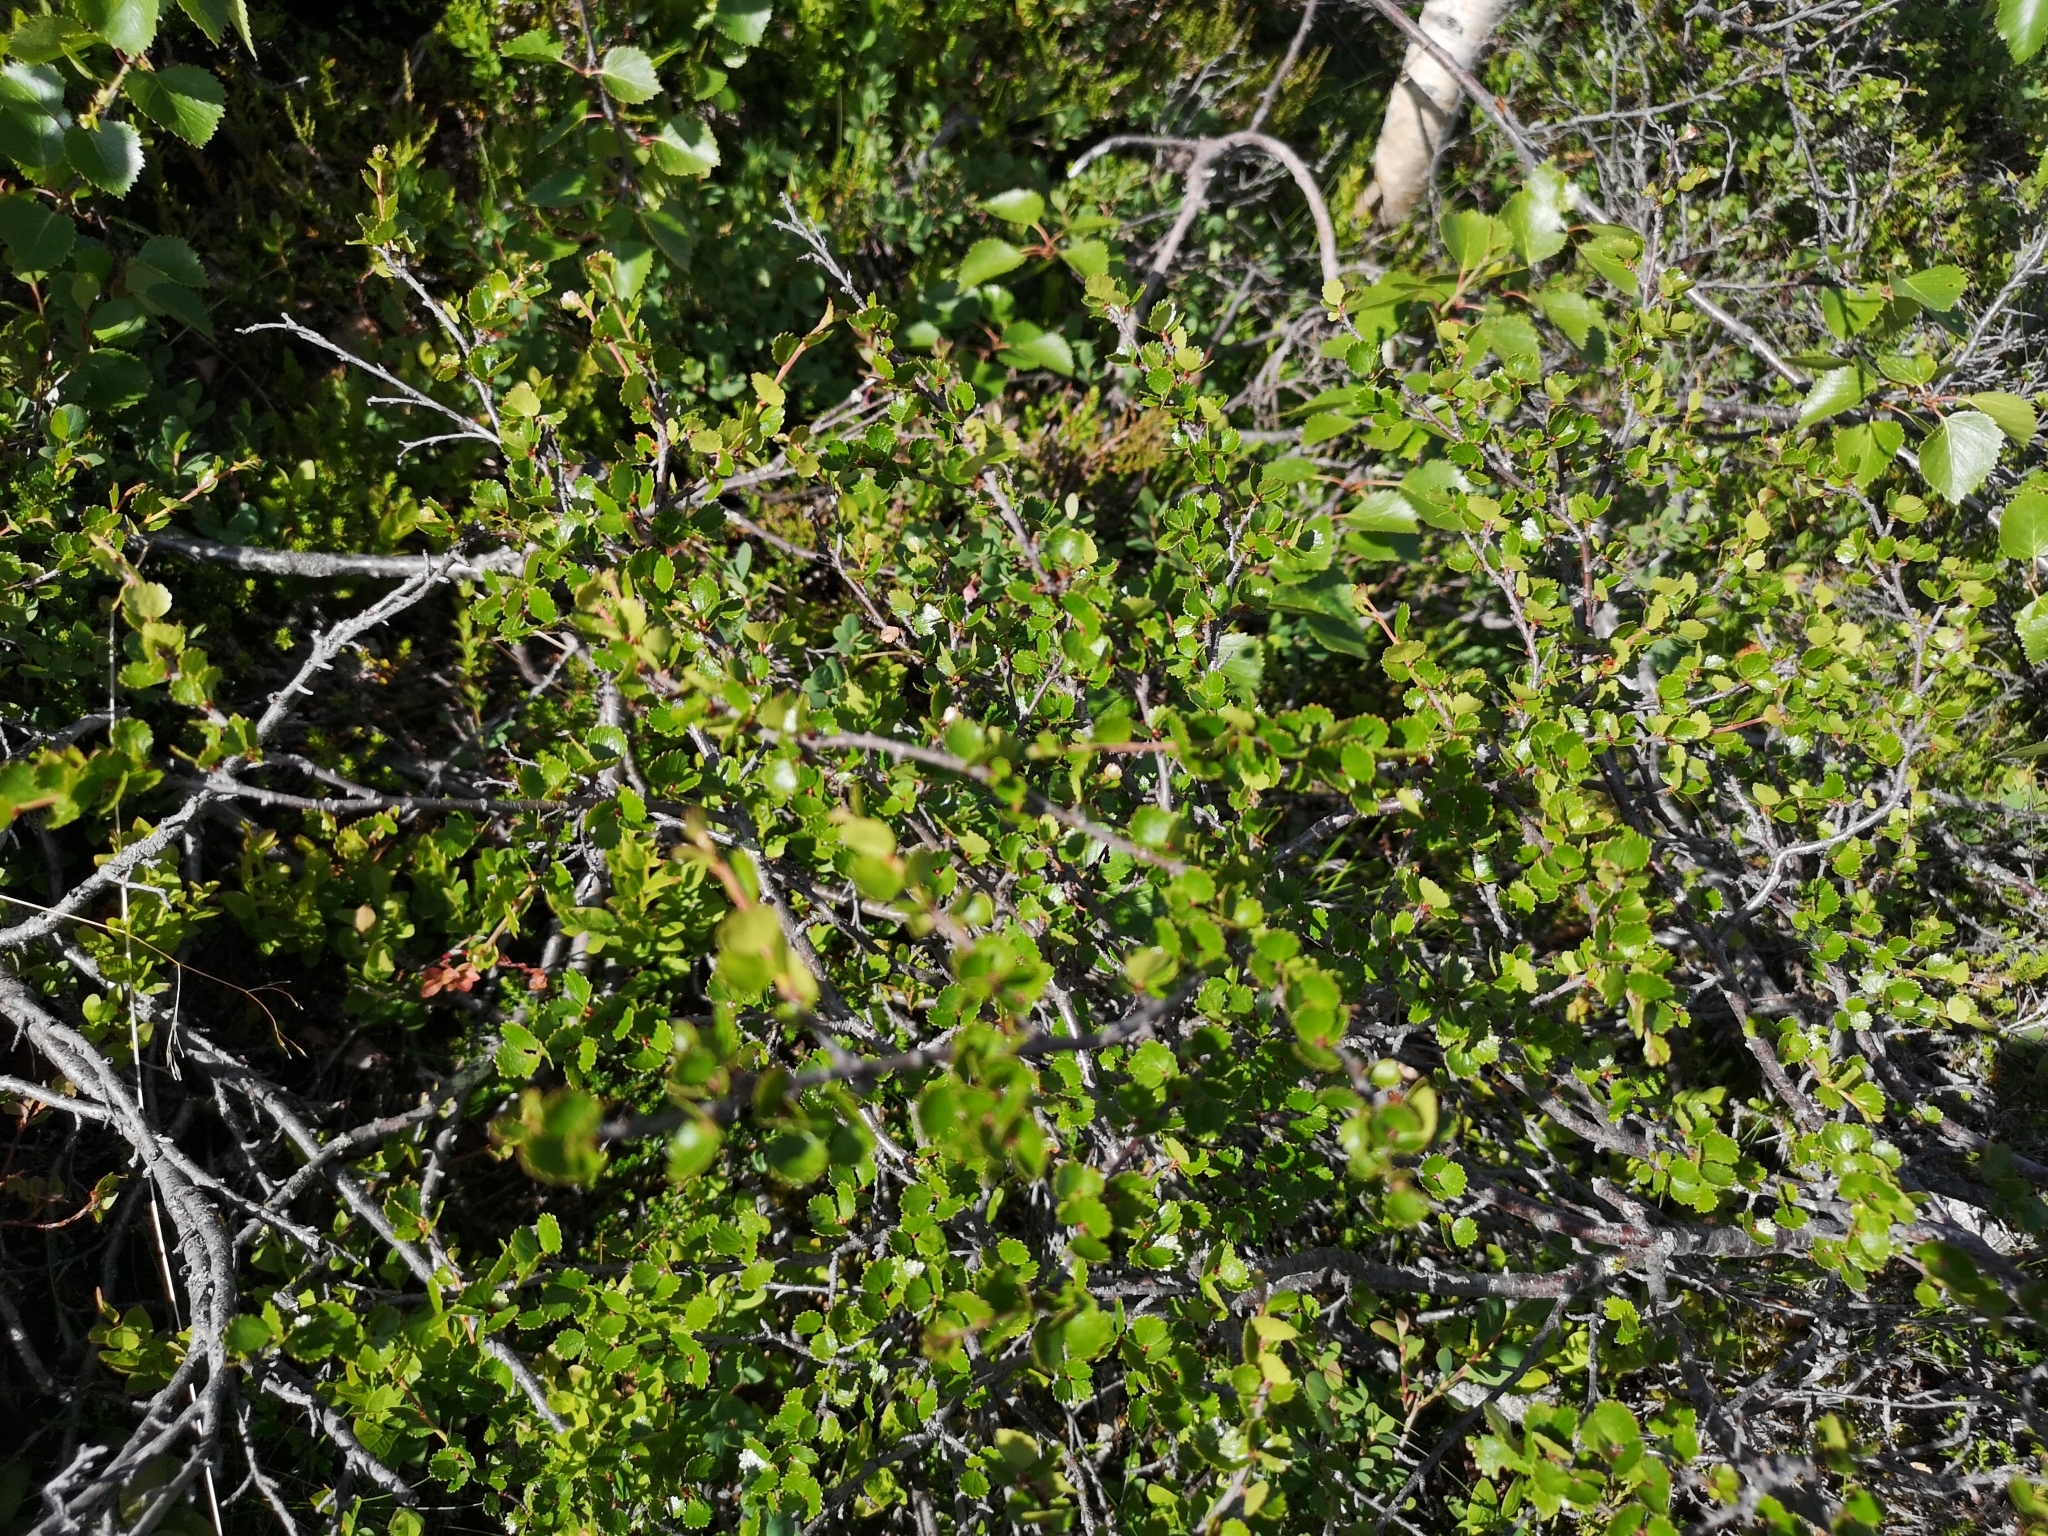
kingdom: Plantae
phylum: Tracheophyta
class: Magnoliopsida
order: Fagales
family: Betulaceae
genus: Betula
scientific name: Betula nana
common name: Arctic dwarf birch
